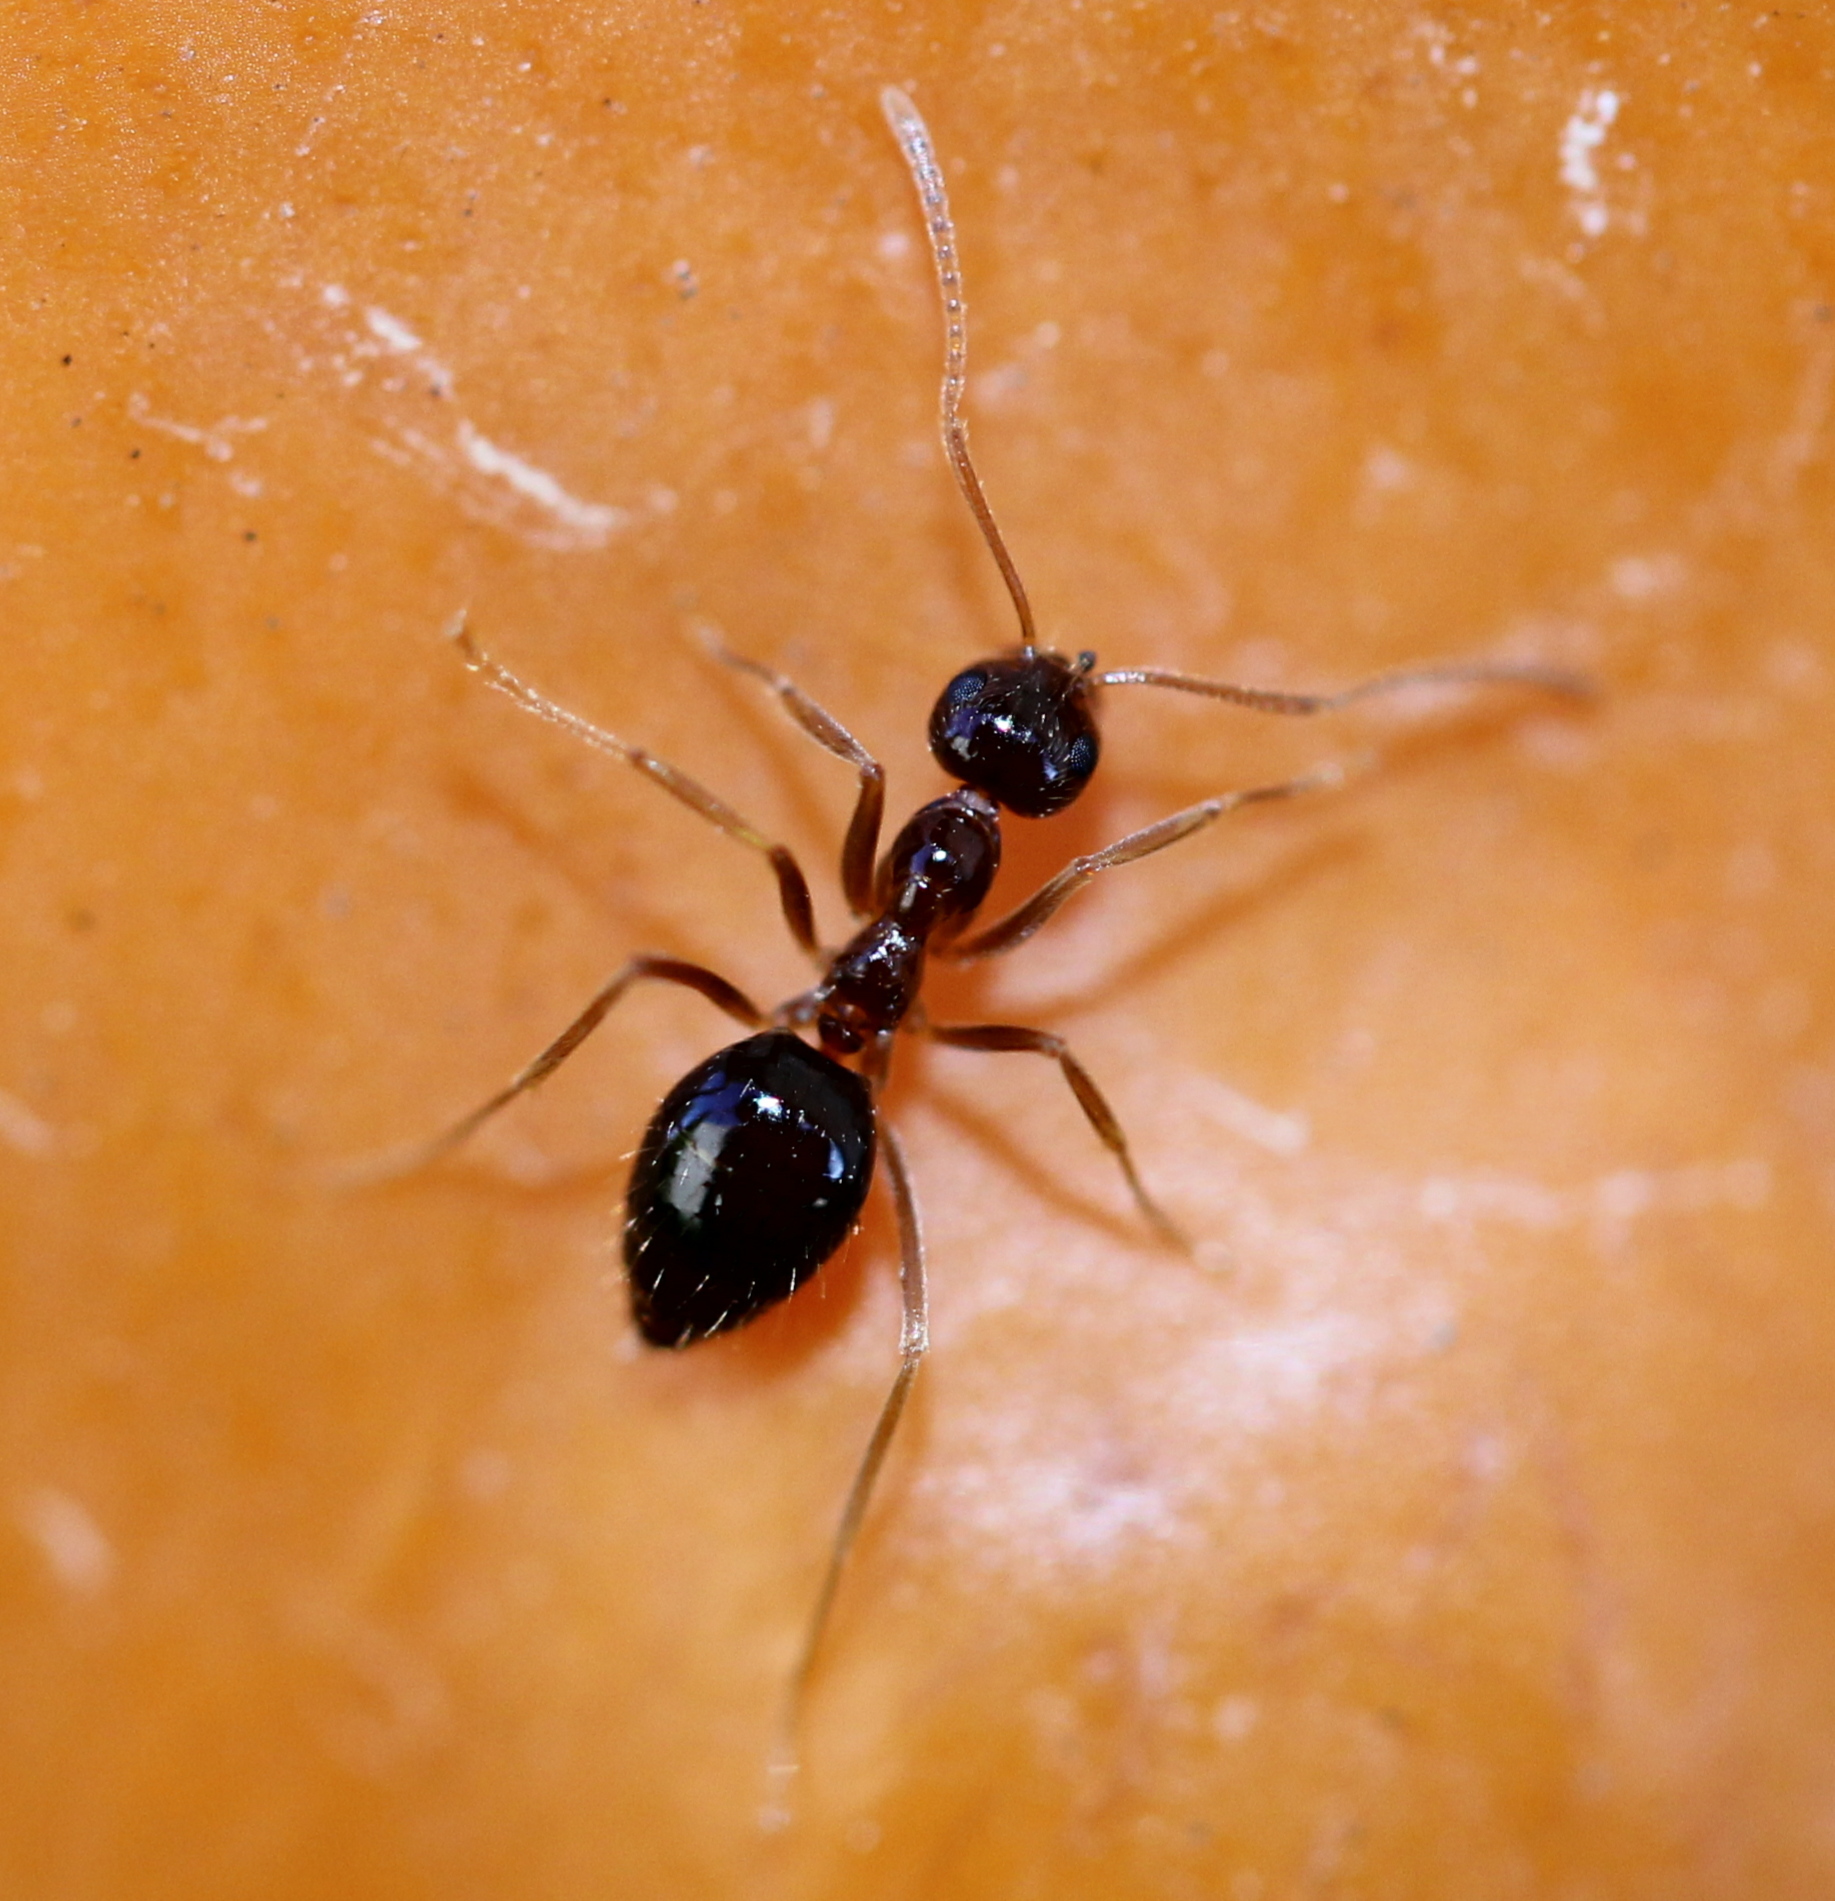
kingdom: Animalia
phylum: Arthropoda
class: Insecta
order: Hymenoptera
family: Formicidae
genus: Prenolepis
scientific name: Prenolepis imparis
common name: Small honey ant
